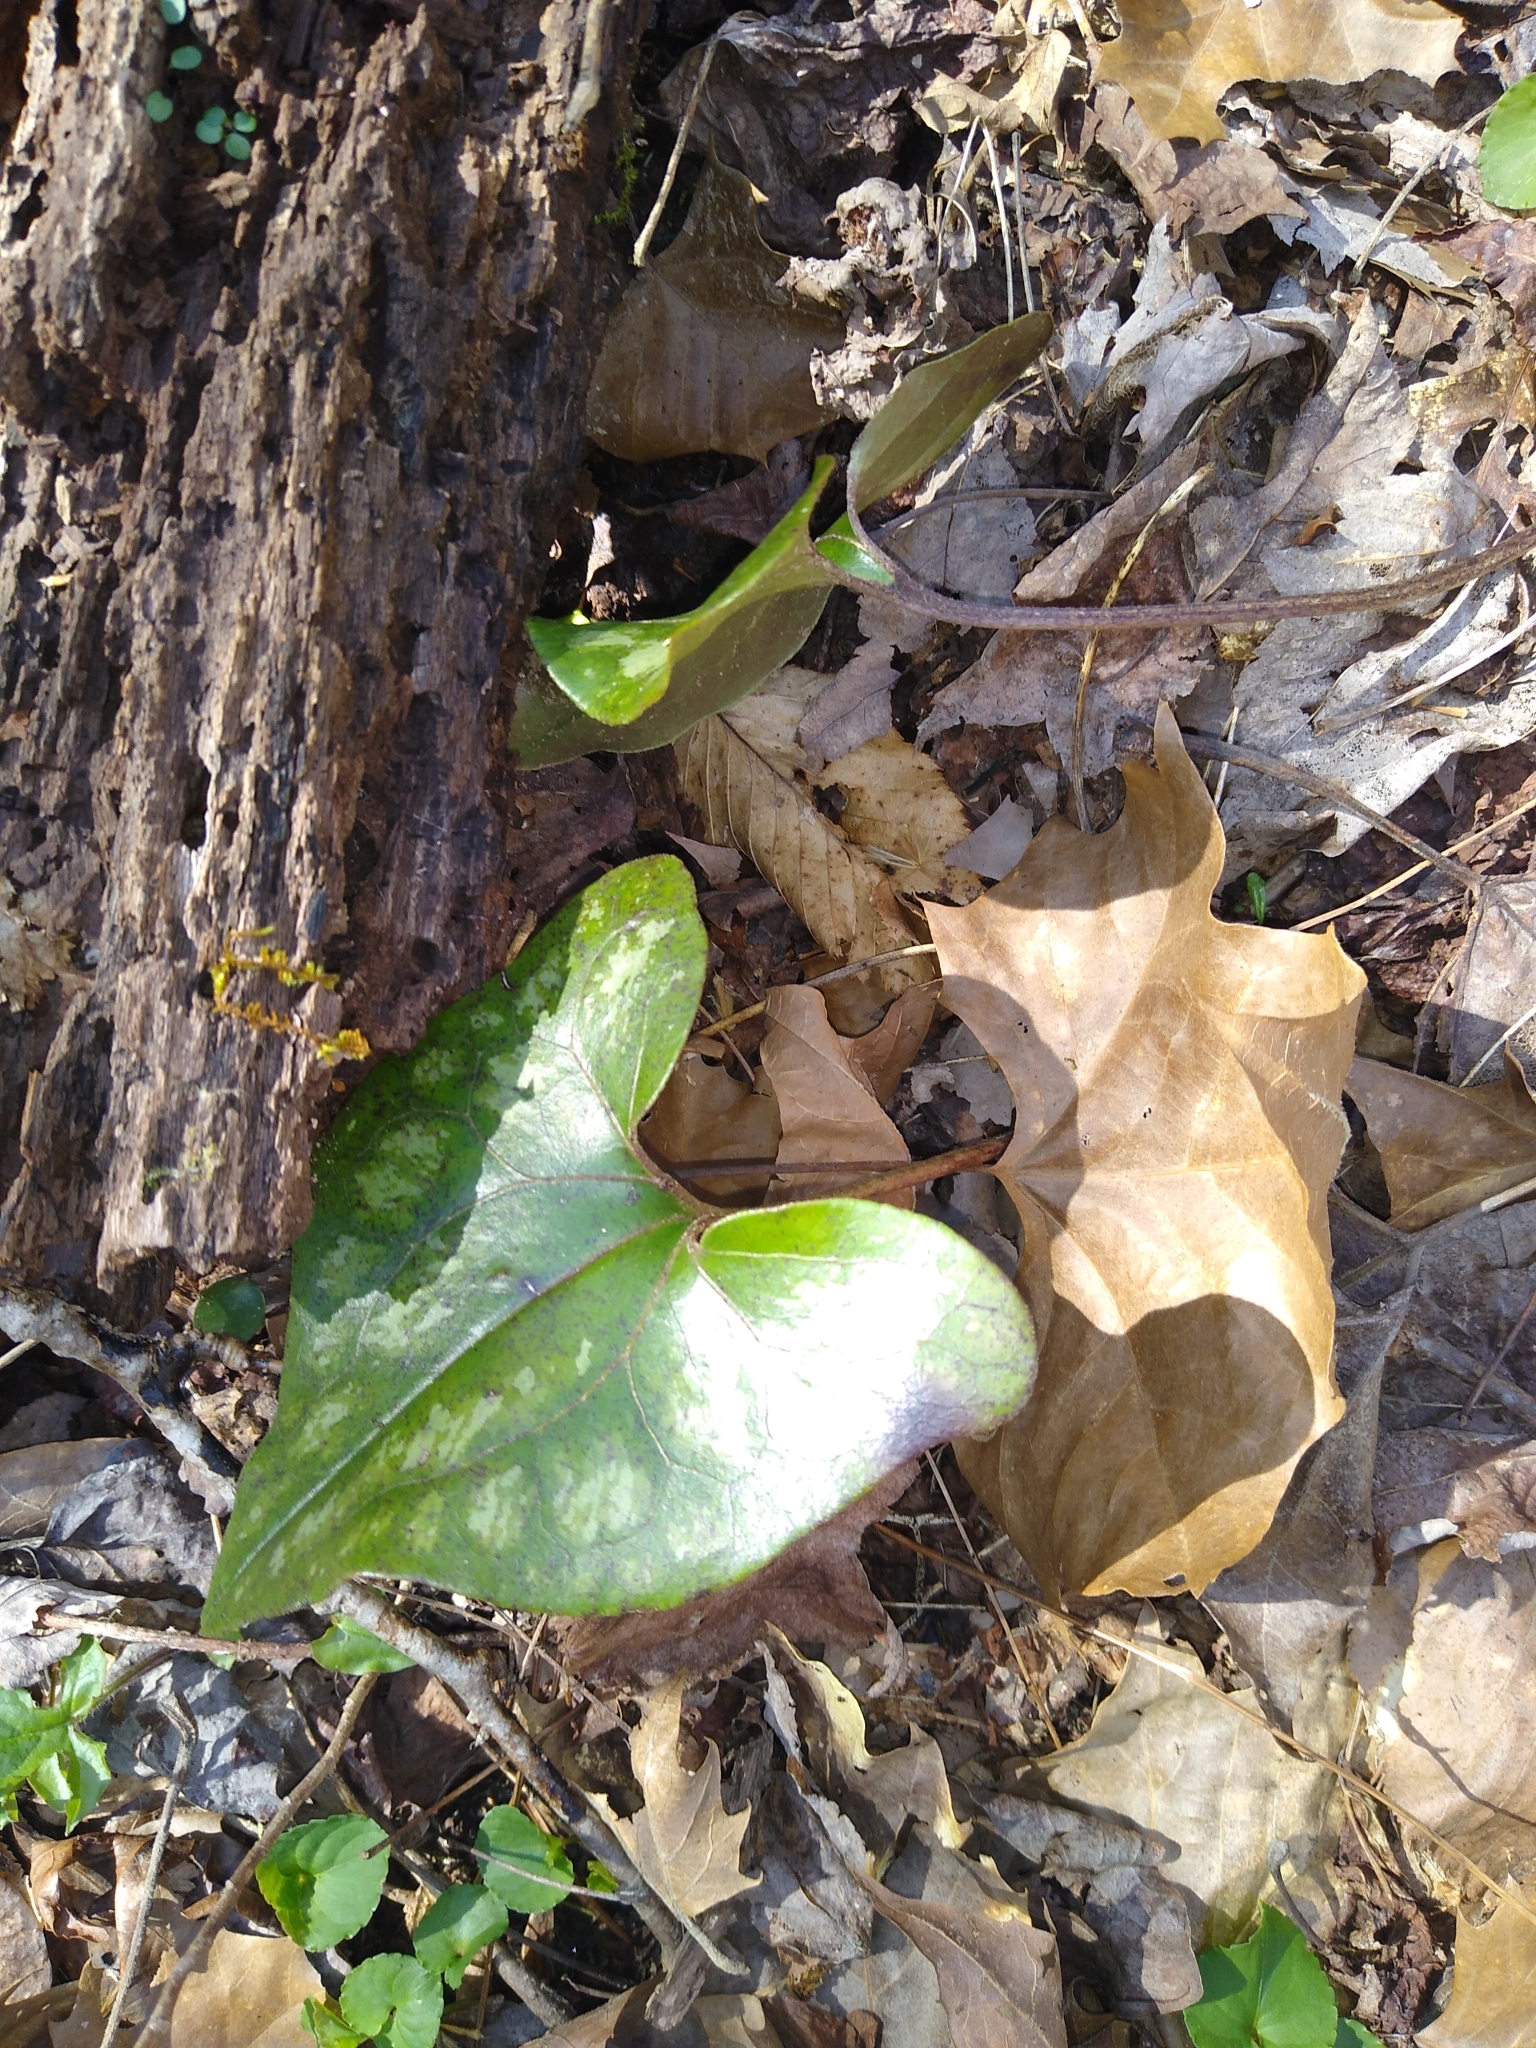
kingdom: Plantae
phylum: Tracheophyta
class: Magnoliopsida
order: Piperales
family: Aristolochiaceae
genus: Hexastylis
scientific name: Hexastylis arifolia
